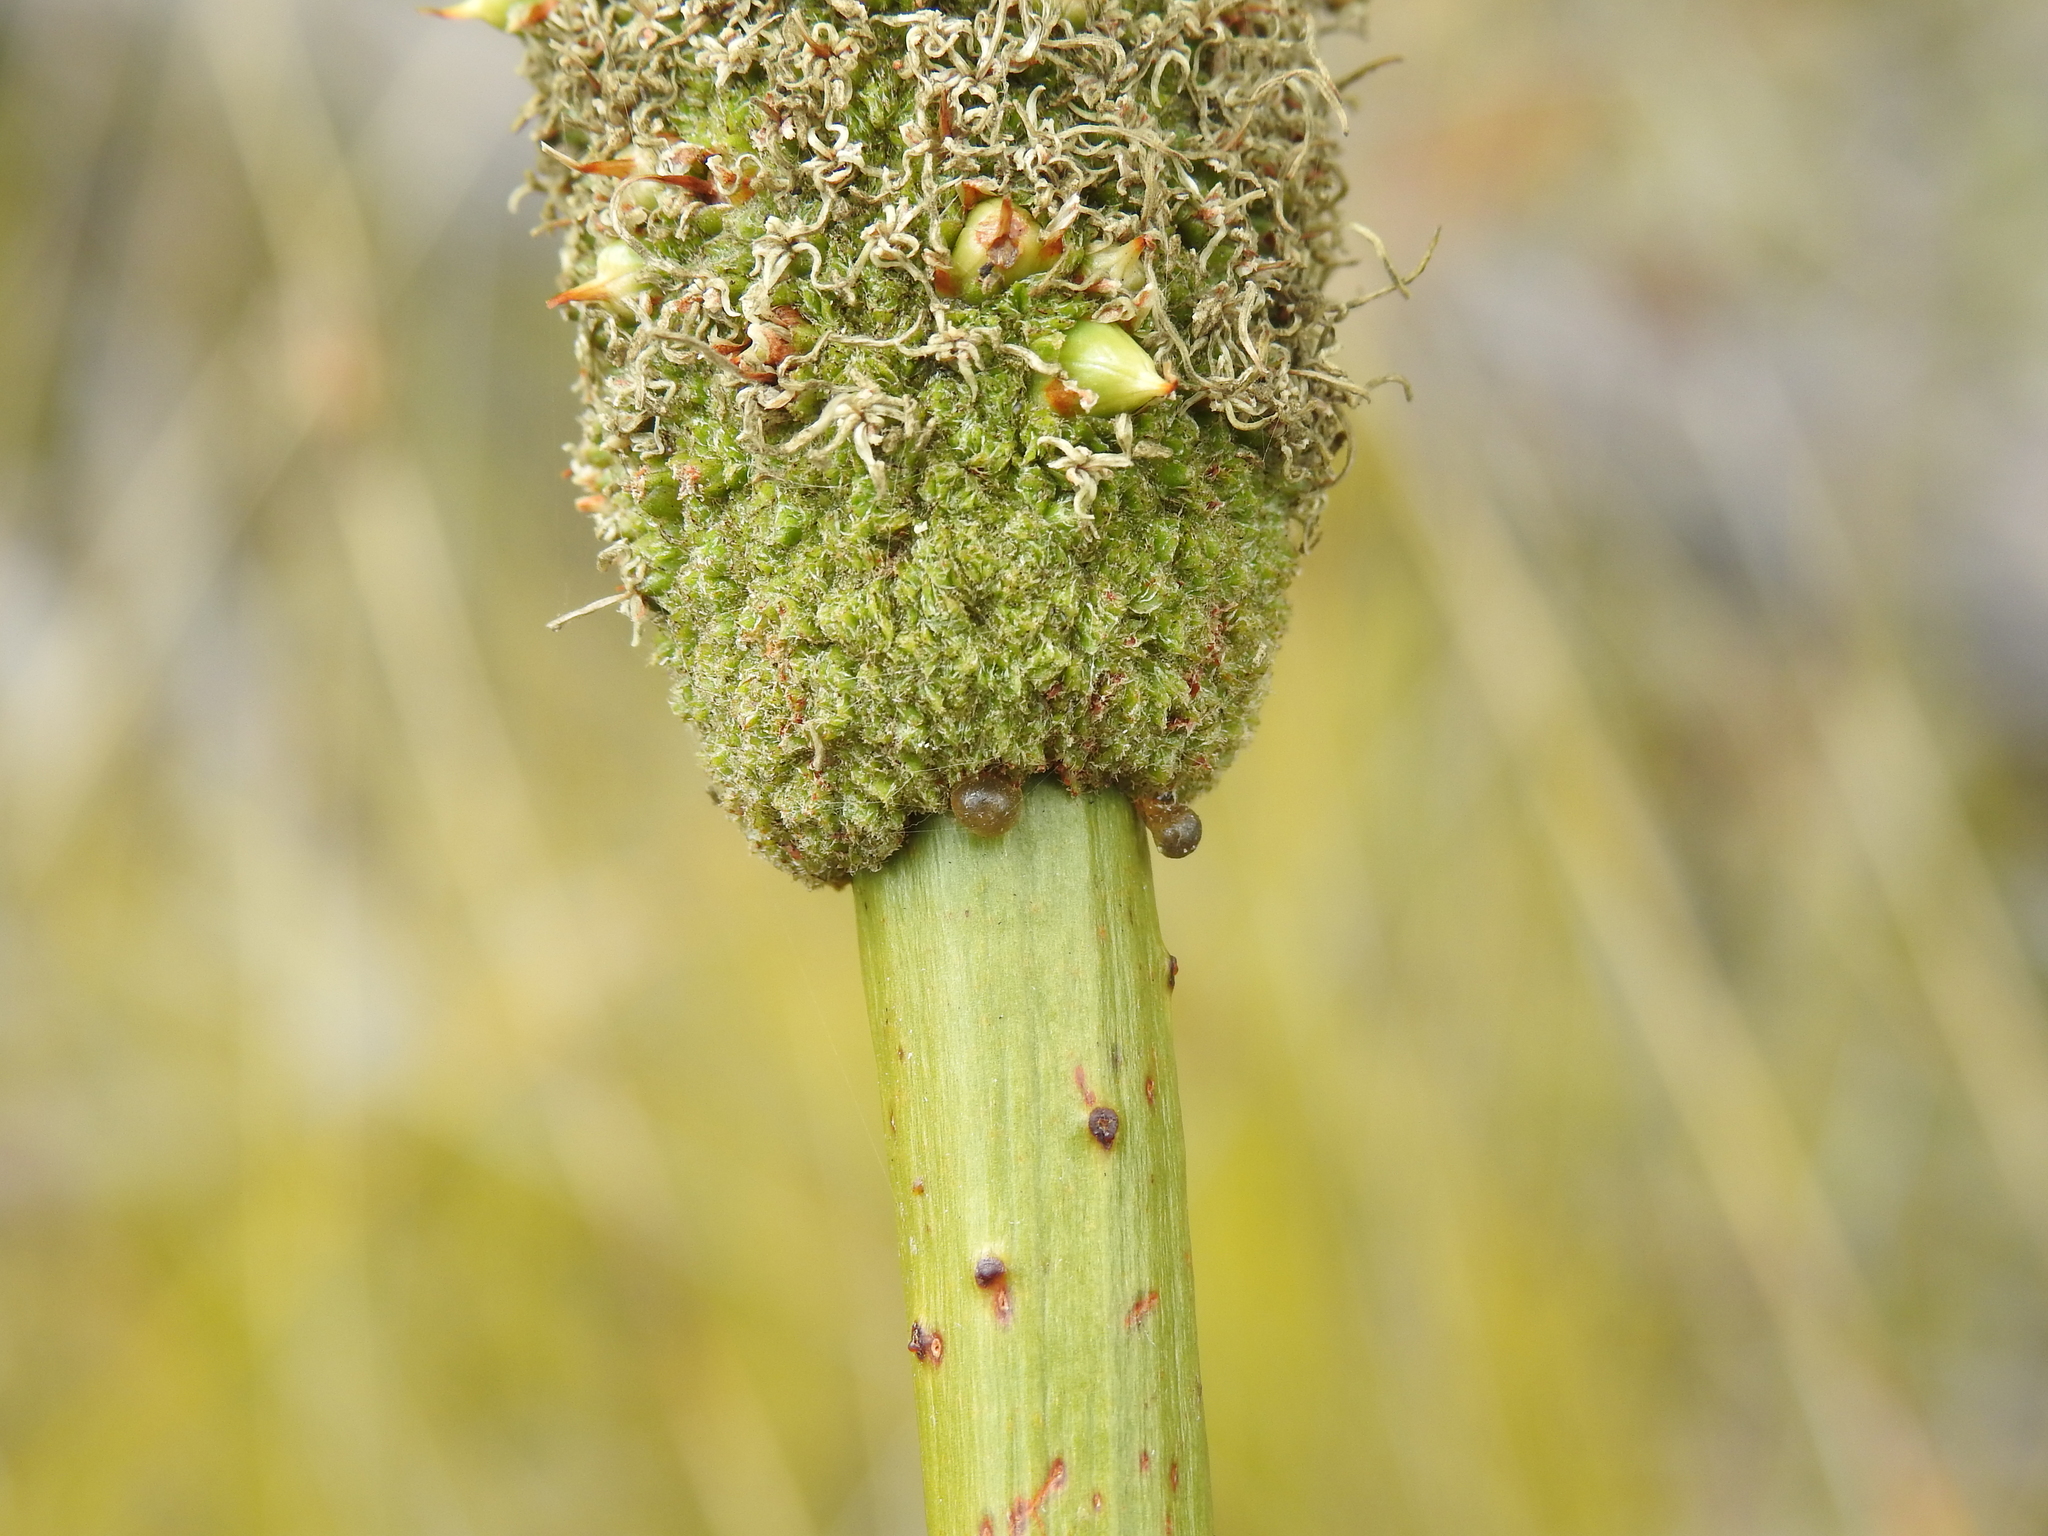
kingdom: Plantae
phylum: Tracheophyta
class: Liliopsida
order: Asparagales
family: Asphodelaceae
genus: Xanthorrhoea
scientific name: Xanthorrhoea johnsonii
